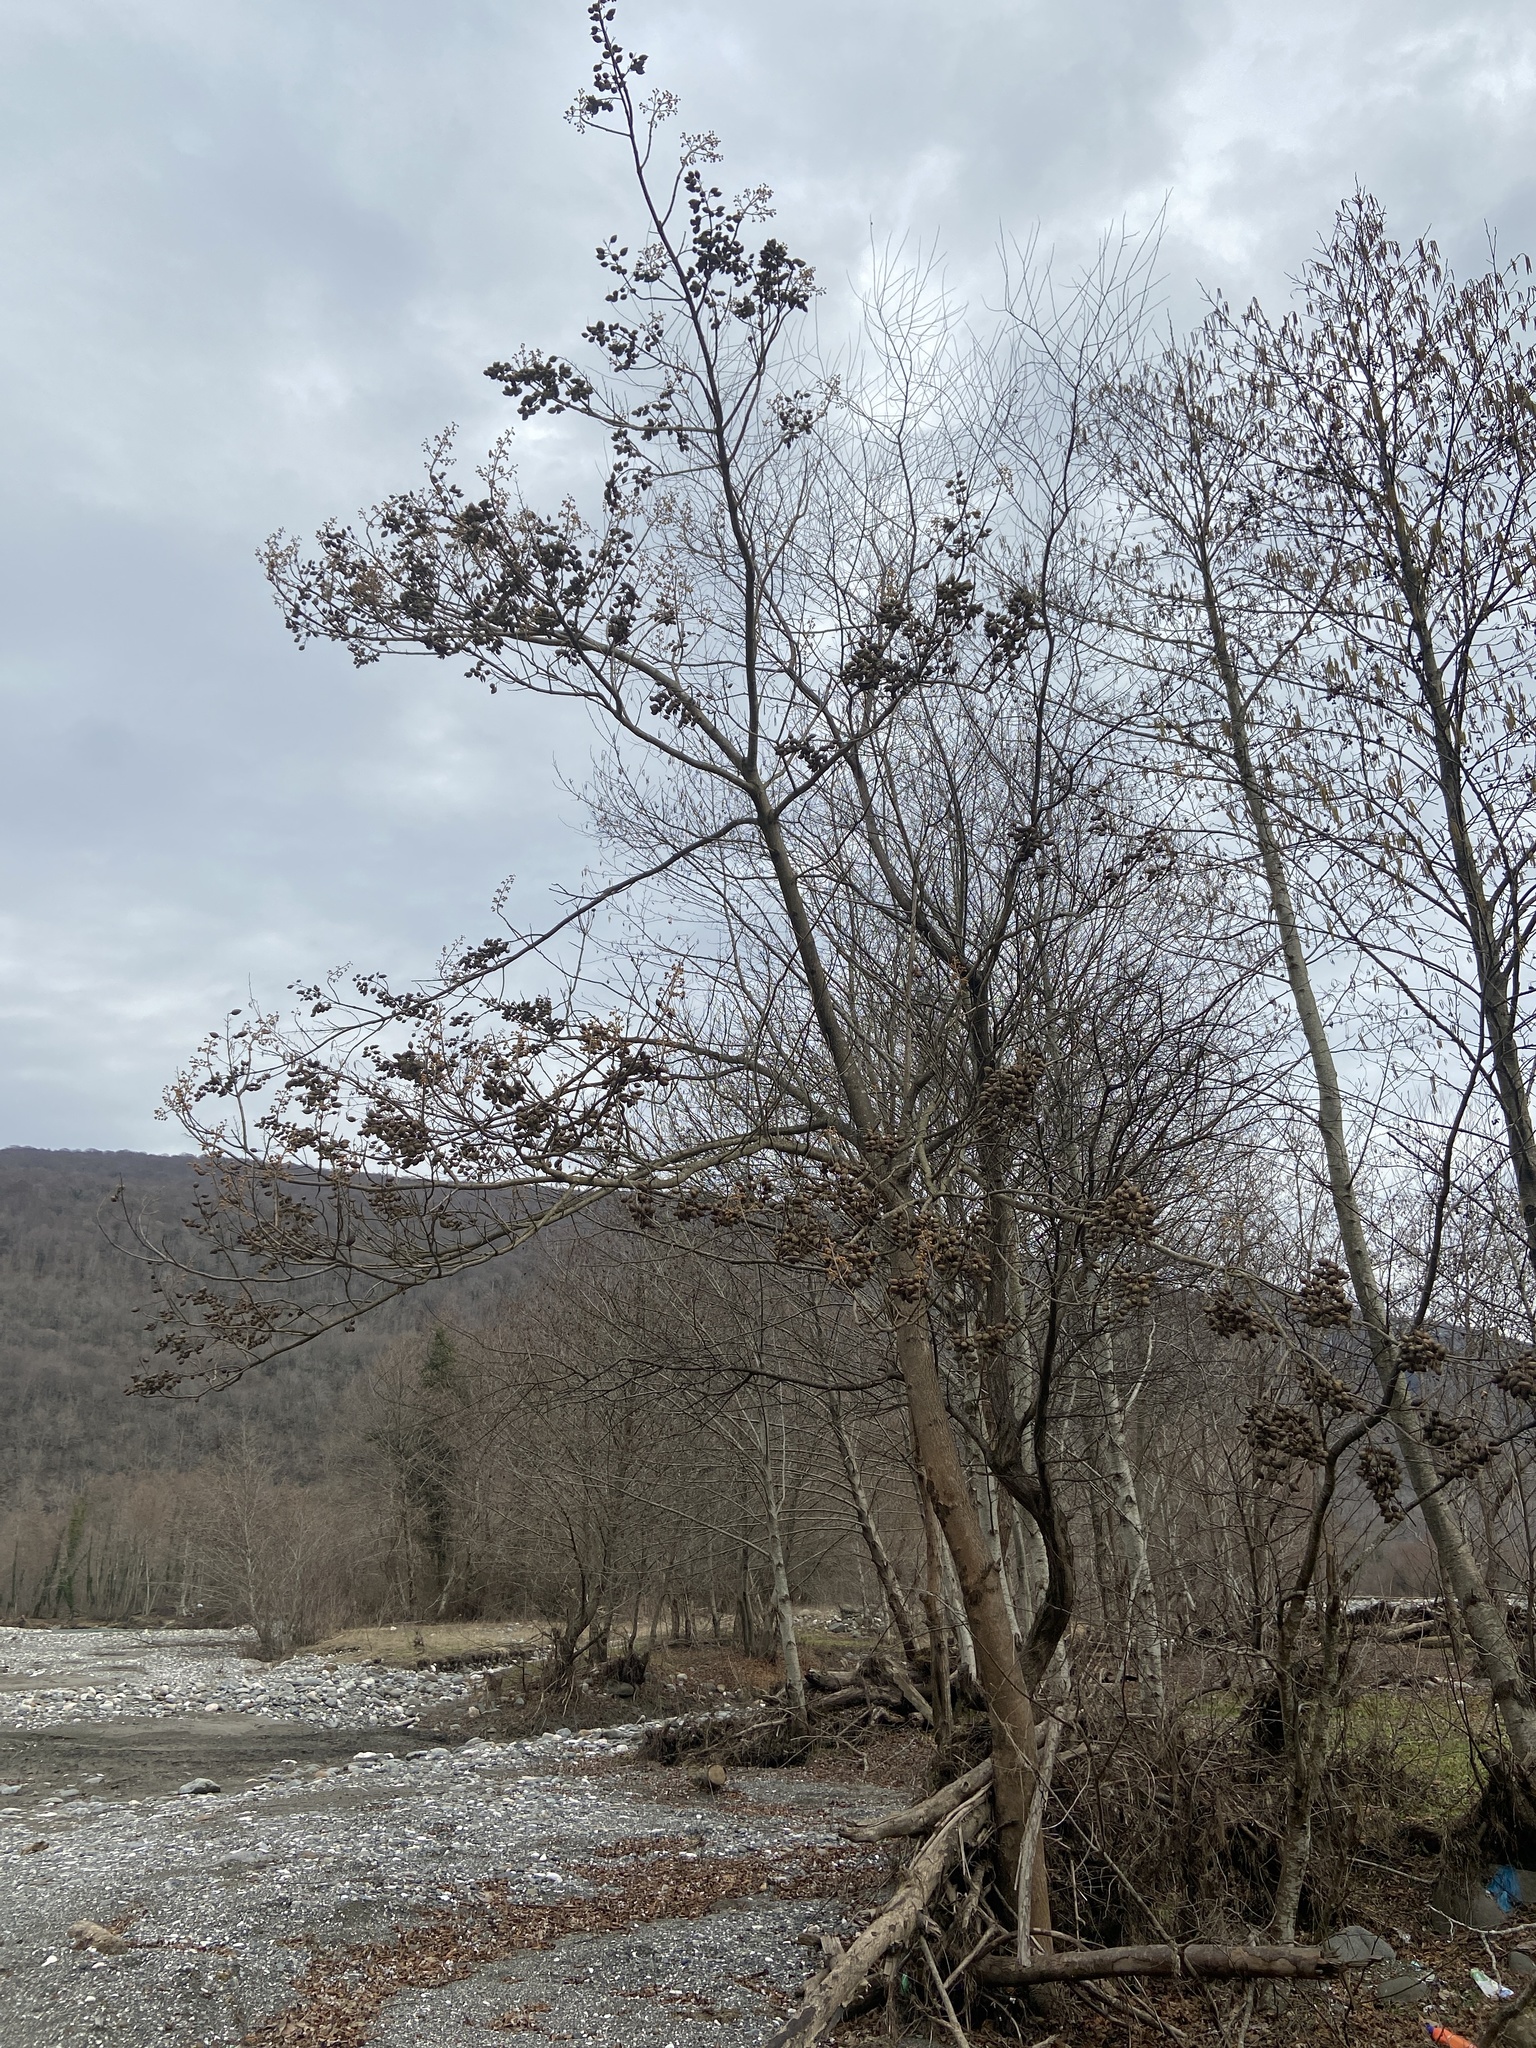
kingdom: Plantae
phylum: Tracheophyta
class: Magnoliopsida
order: Lamiales
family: Paulowniaceae
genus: Paulownia
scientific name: Paulownia tomentosa
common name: Foxglove-tree
